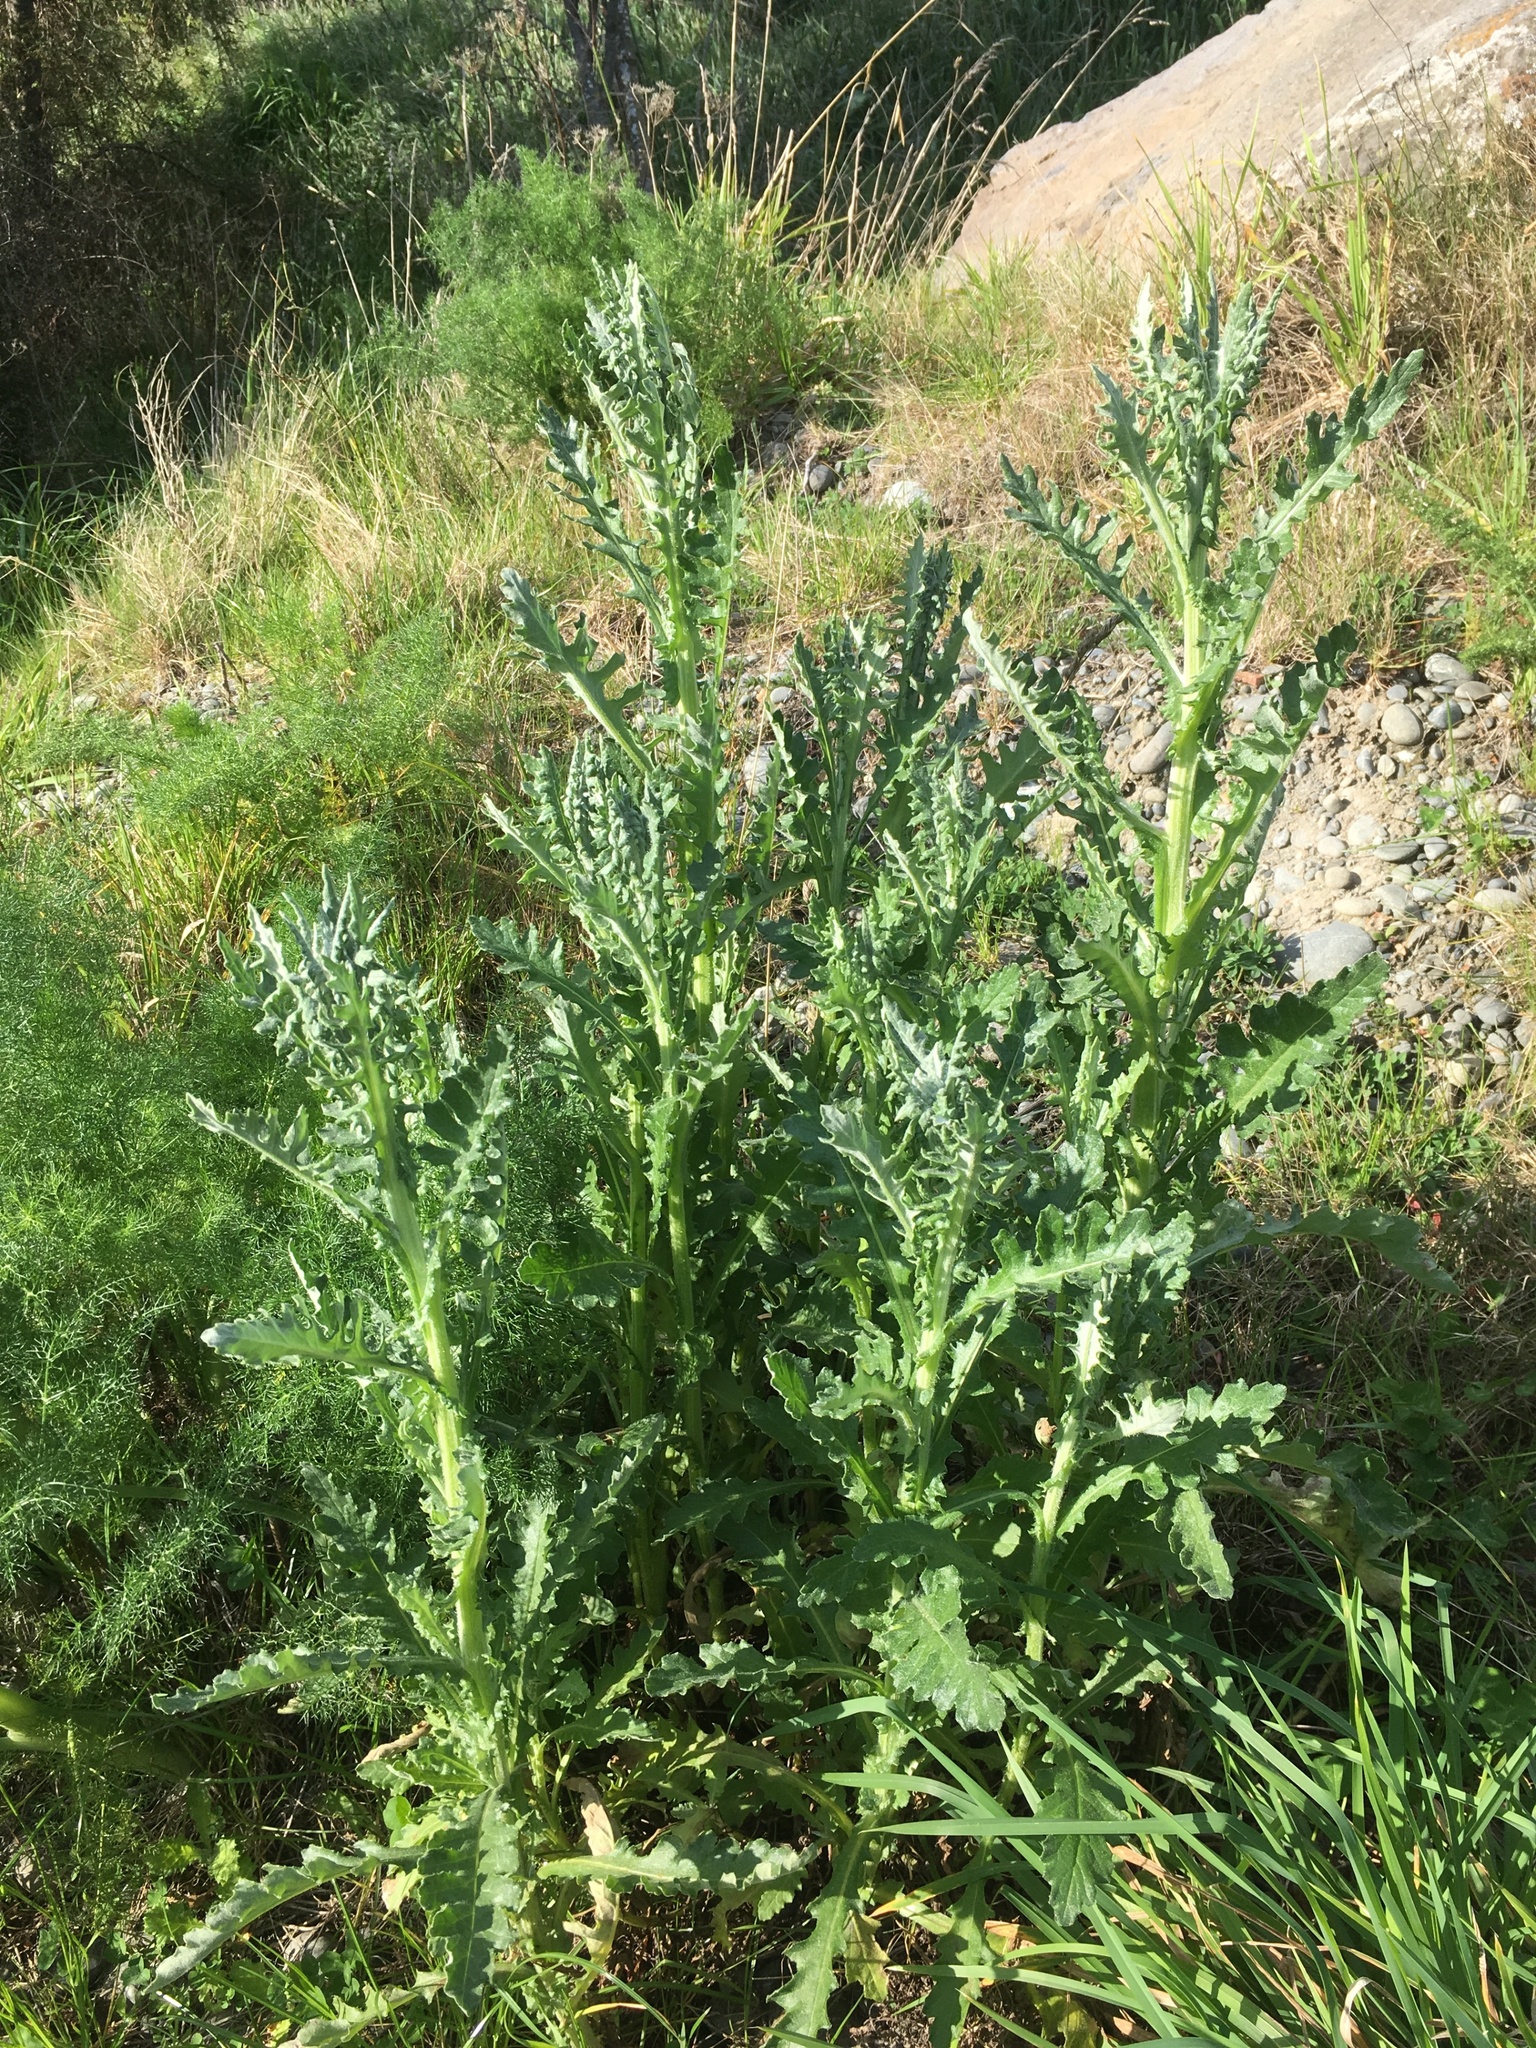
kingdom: Plantae
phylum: Tracheophyta
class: Magnoliopsida
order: Asterales
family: Asteraceae
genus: Senecio
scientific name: Senecio glomeratus
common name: Cutleaf burnweed
